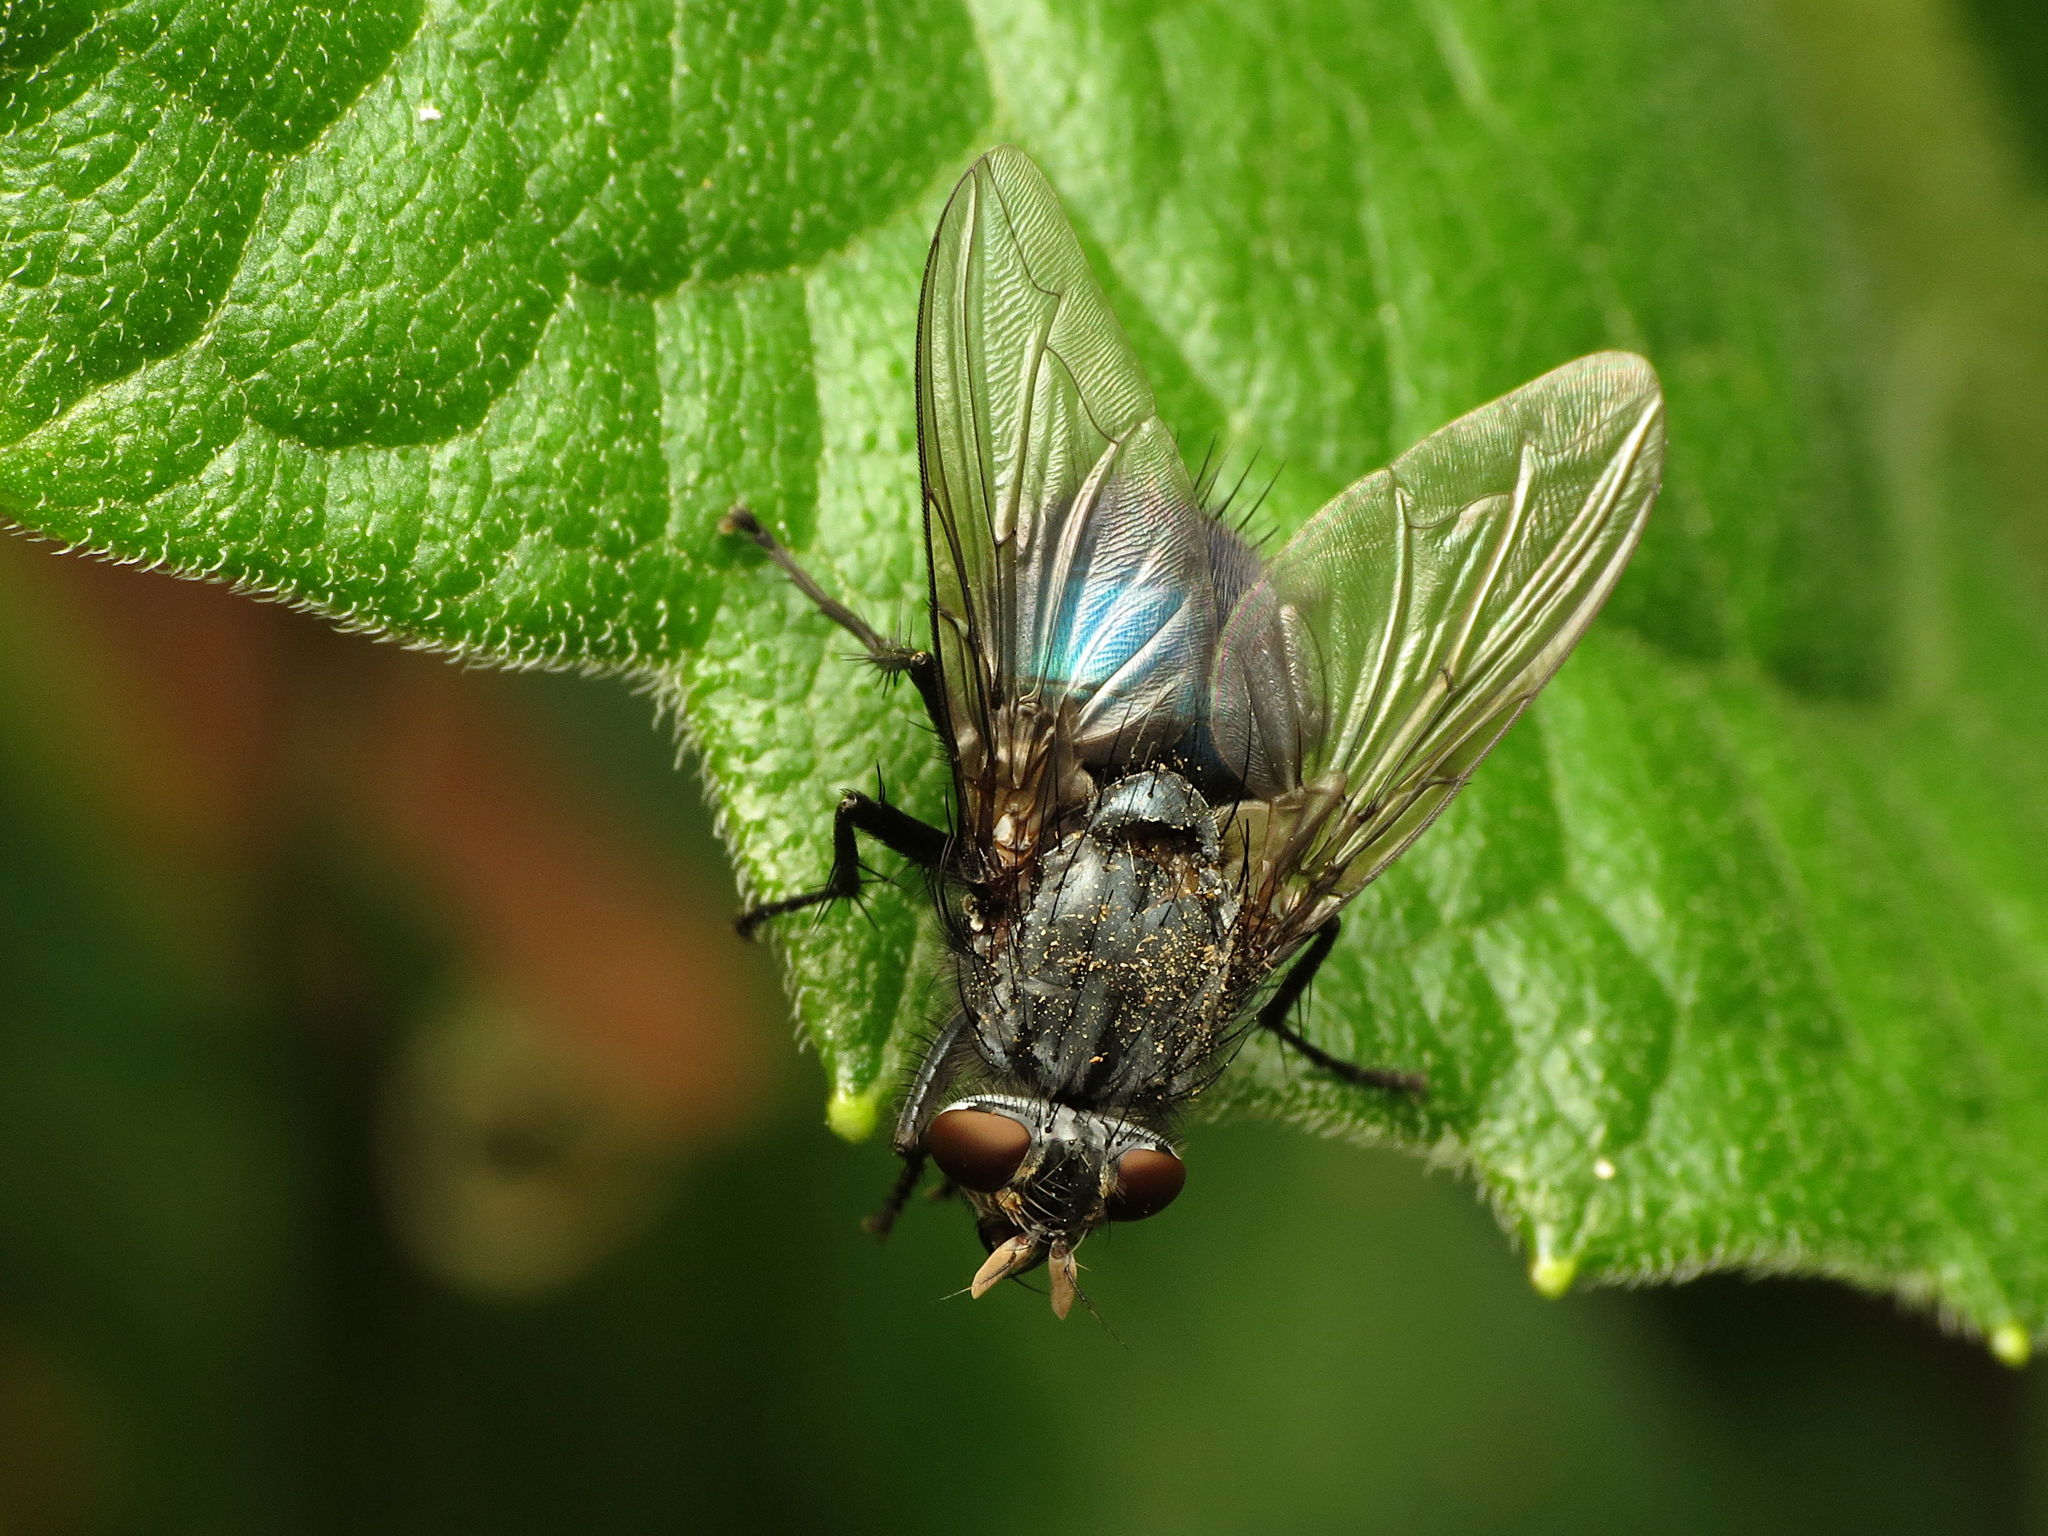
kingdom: Animalia
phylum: Arthropoda
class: Insecta
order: Diptera
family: Calliphoridae
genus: Cynomya
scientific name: Cynomya cadaverina
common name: Shiny blue bottle fly
